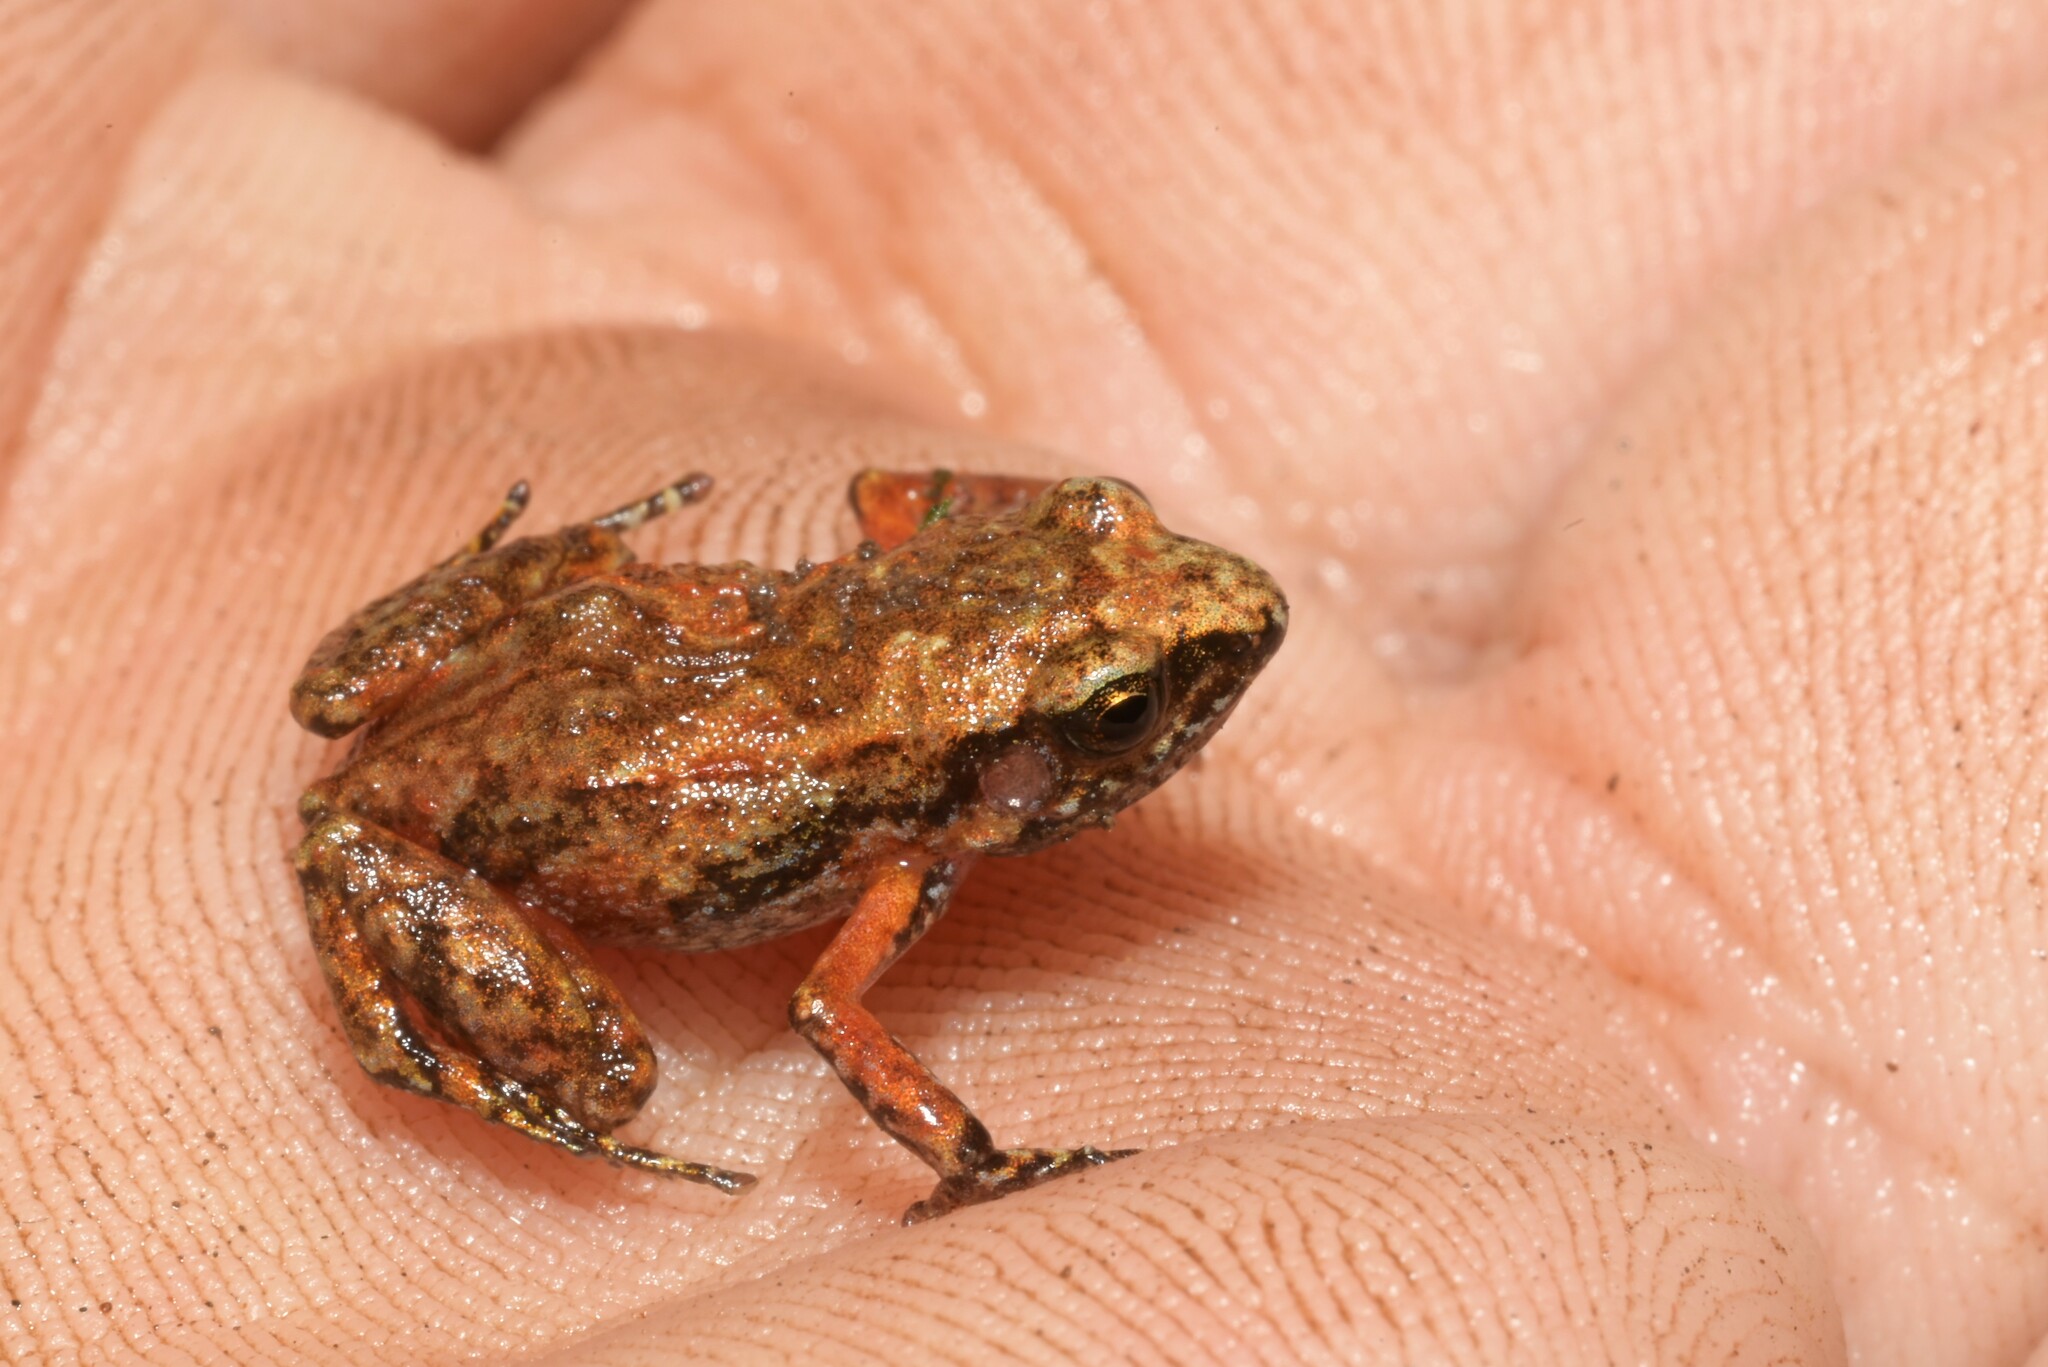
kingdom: Animalia
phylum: Chordata
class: Amphibia
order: Anura
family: Arthroleptidae
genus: Arthroleptis
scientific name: Arthroleptis xenodactyloides
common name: Chirinda screeching frog
